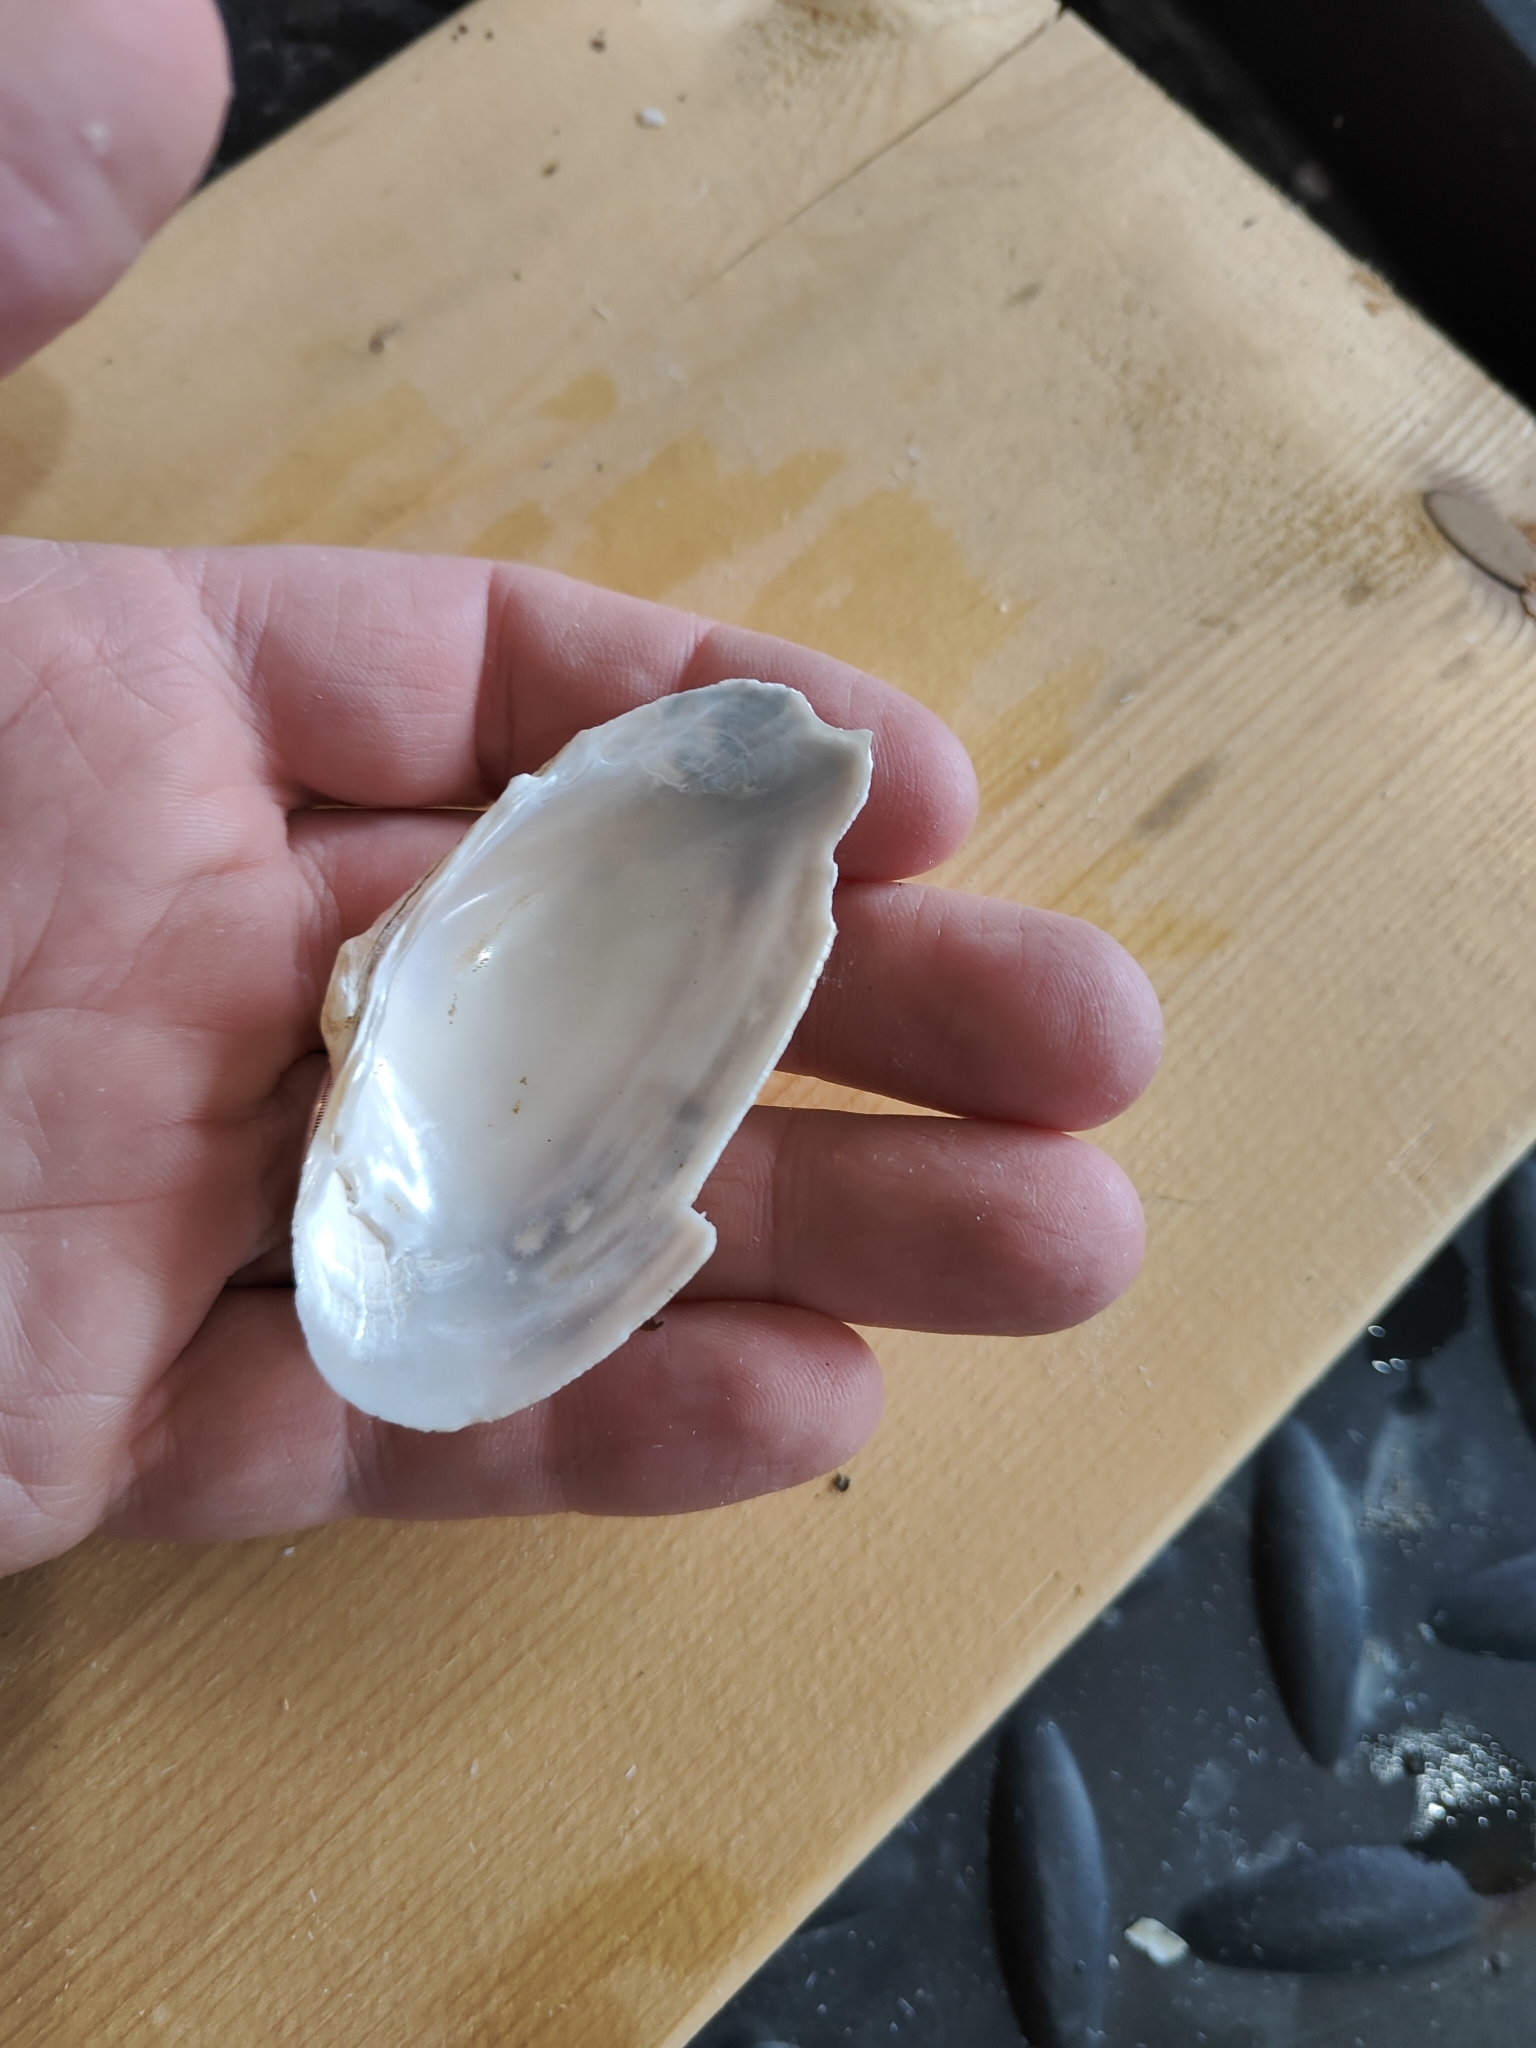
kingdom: Animalia
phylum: Mollusca
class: Bivalvia
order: Unionida
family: Unionidae
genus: Alasmidonta
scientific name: Alasmidonta marginata
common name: Elktoe
